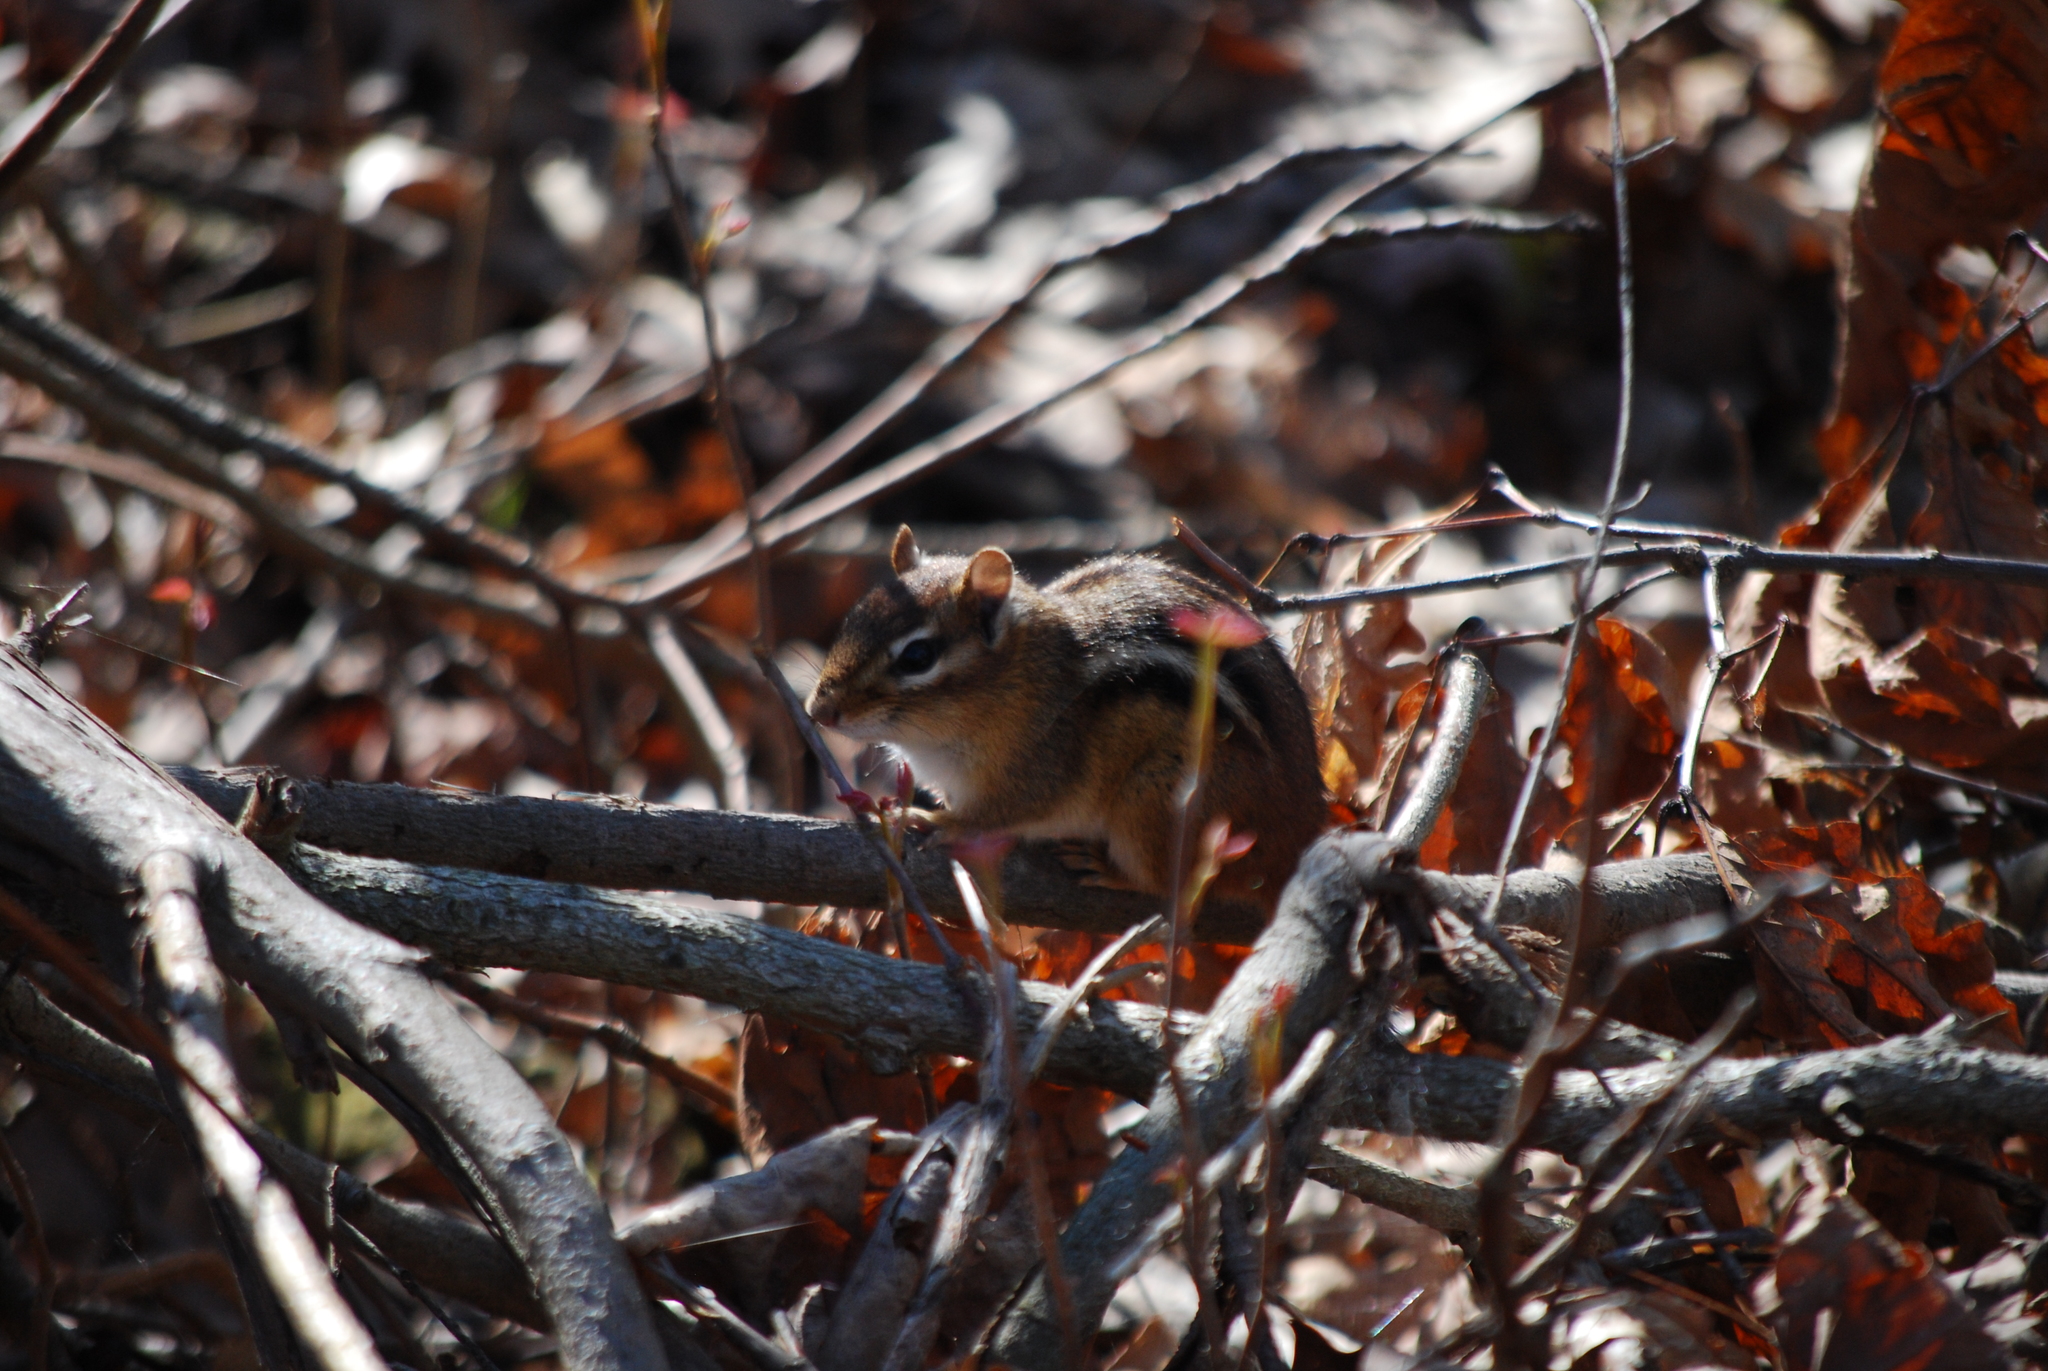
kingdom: Animalia
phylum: Chordata
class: Mammalia
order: Rodentia
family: Sciuridae
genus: Tamias
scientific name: Tamias striatus
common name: Eastern chipmunk
